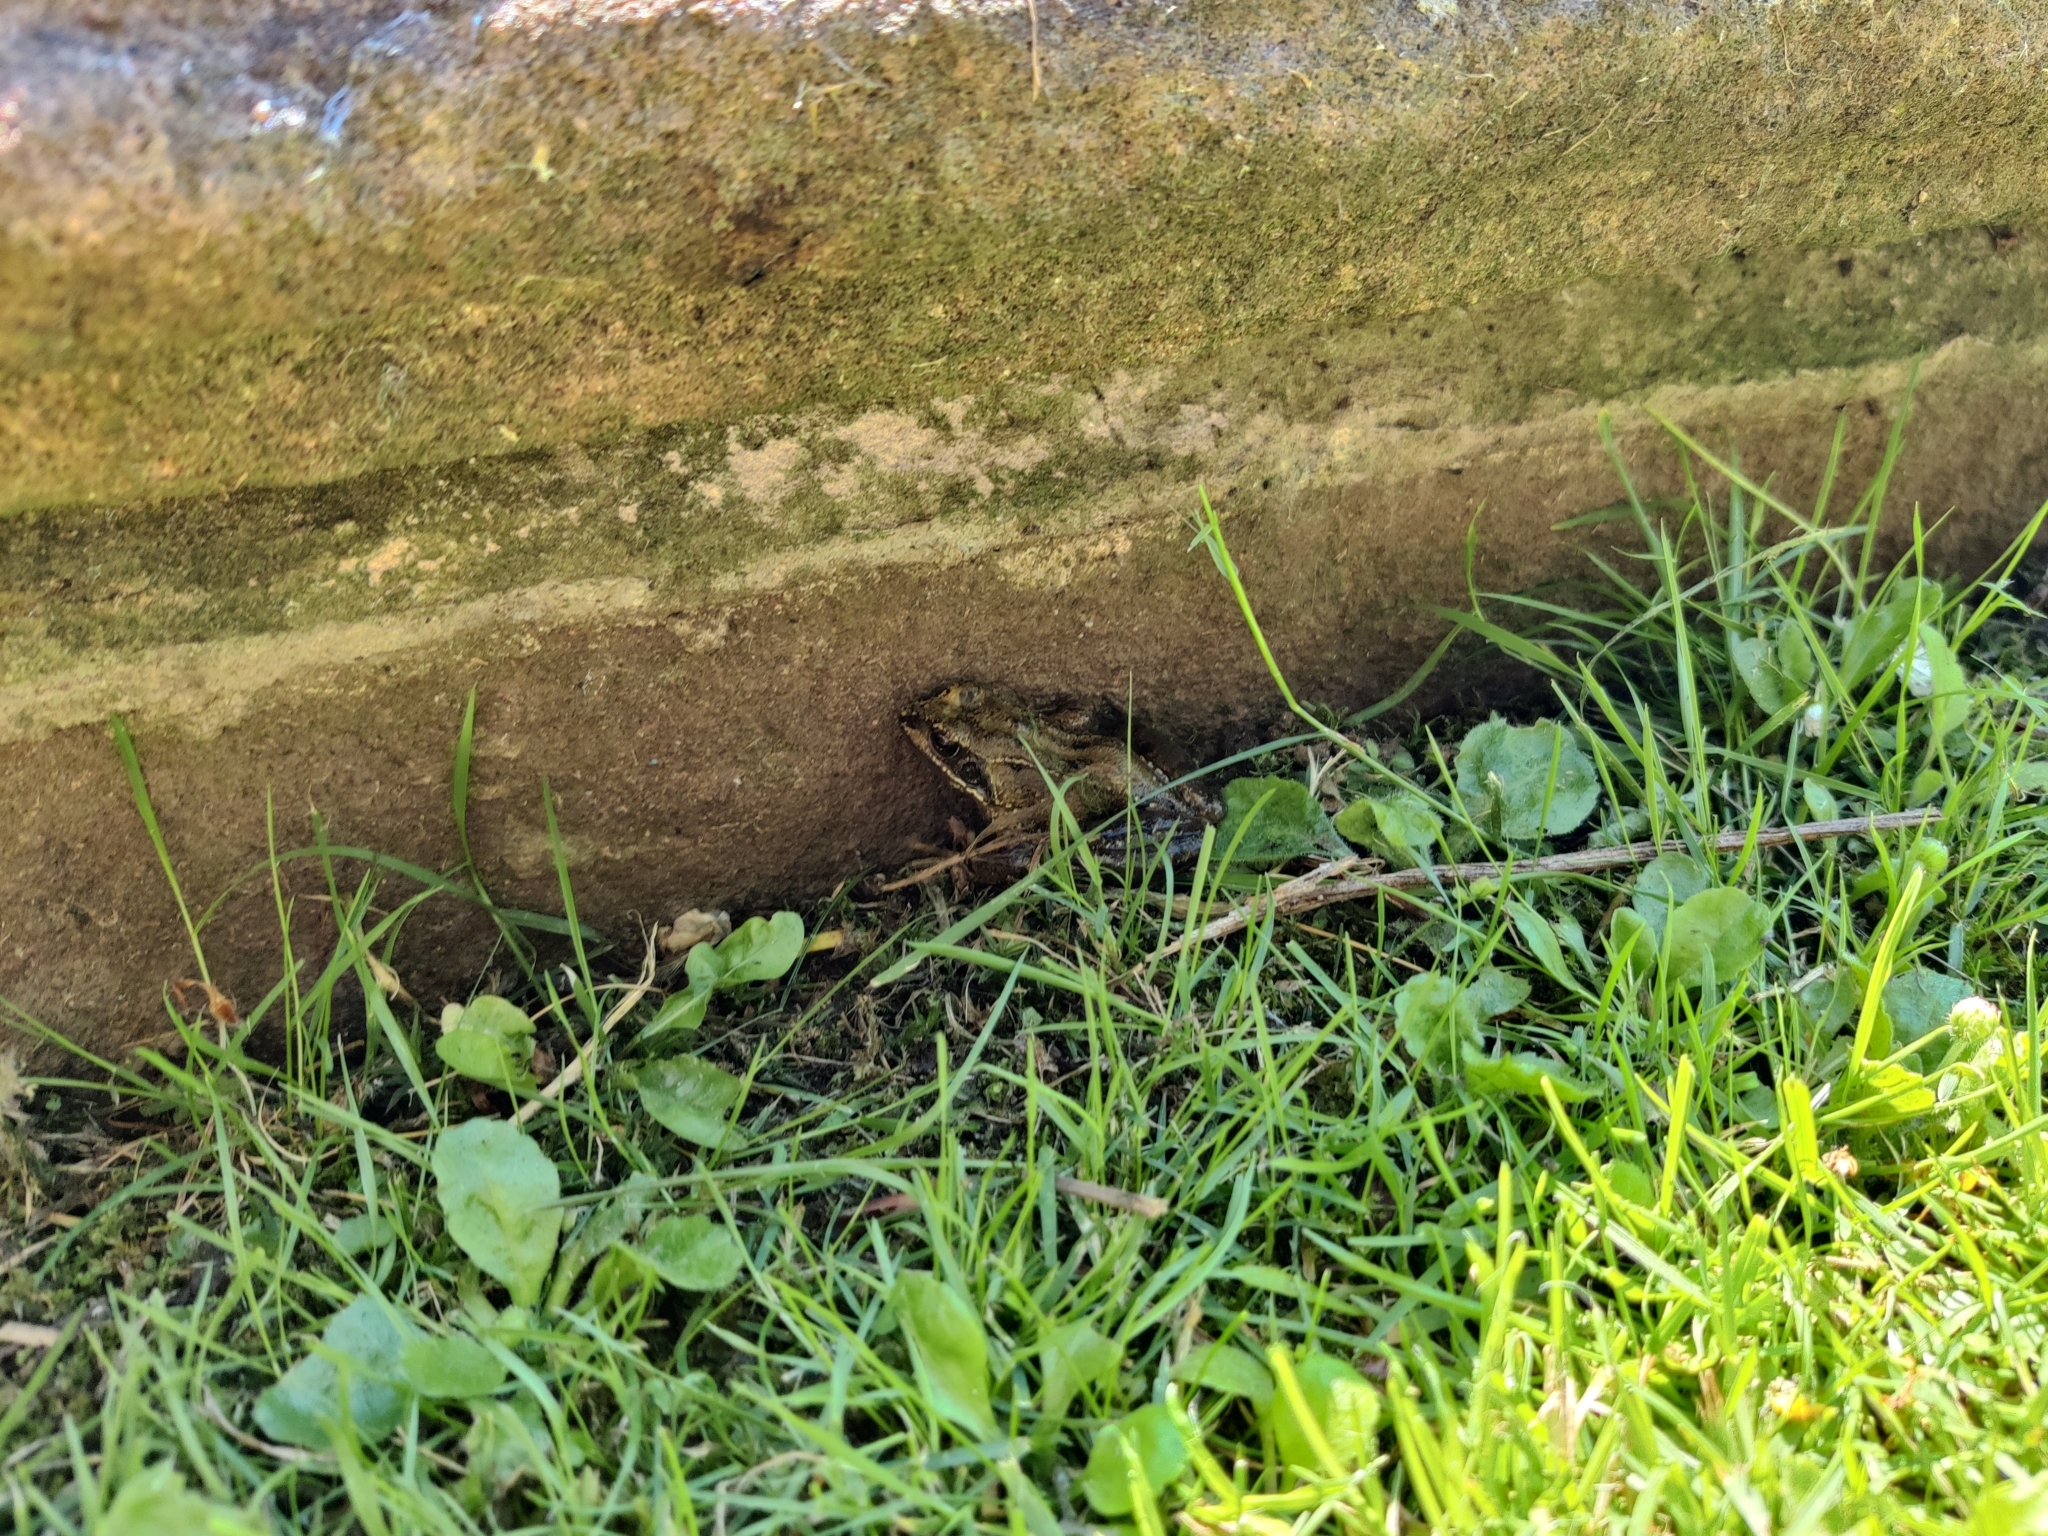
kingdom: Animalia
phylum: Chordata
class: Amphibia
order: Anura
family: Ranidae
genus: Rana
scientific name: Rana temporaria
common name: Common frog
